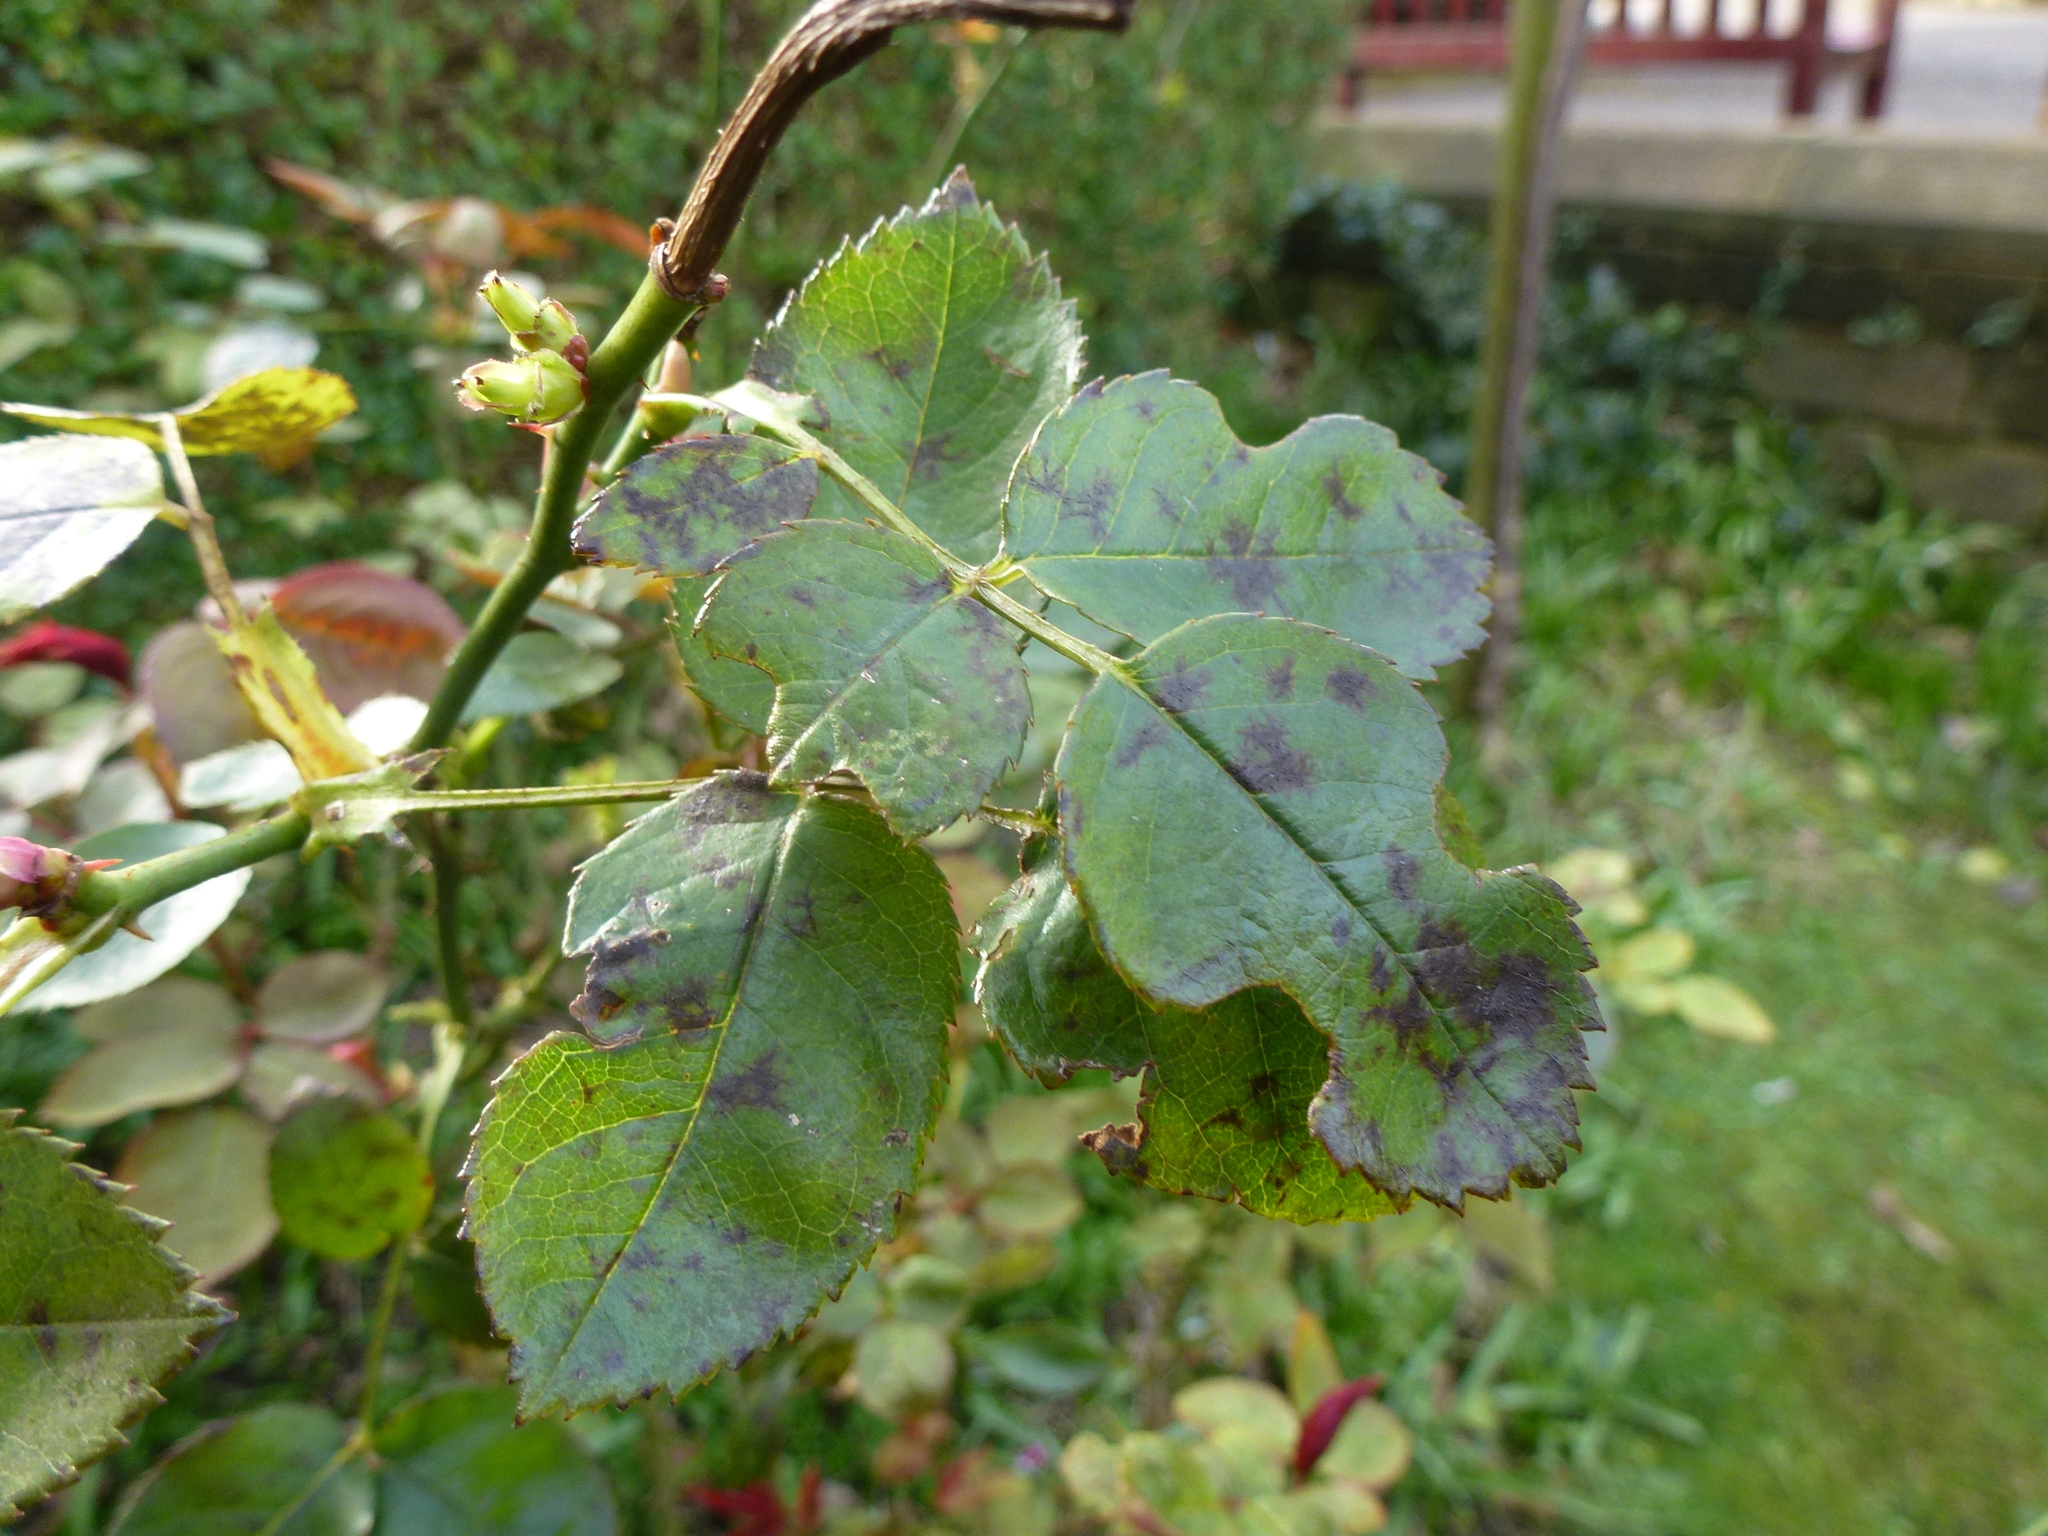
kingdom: Fungi
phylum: Ascomycota
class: Leotiomycetes
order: Helotiales
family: Drepanopezizaceae
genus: Diplocarpon
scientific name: Diplocarpon rosae
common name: Rose black-spot
